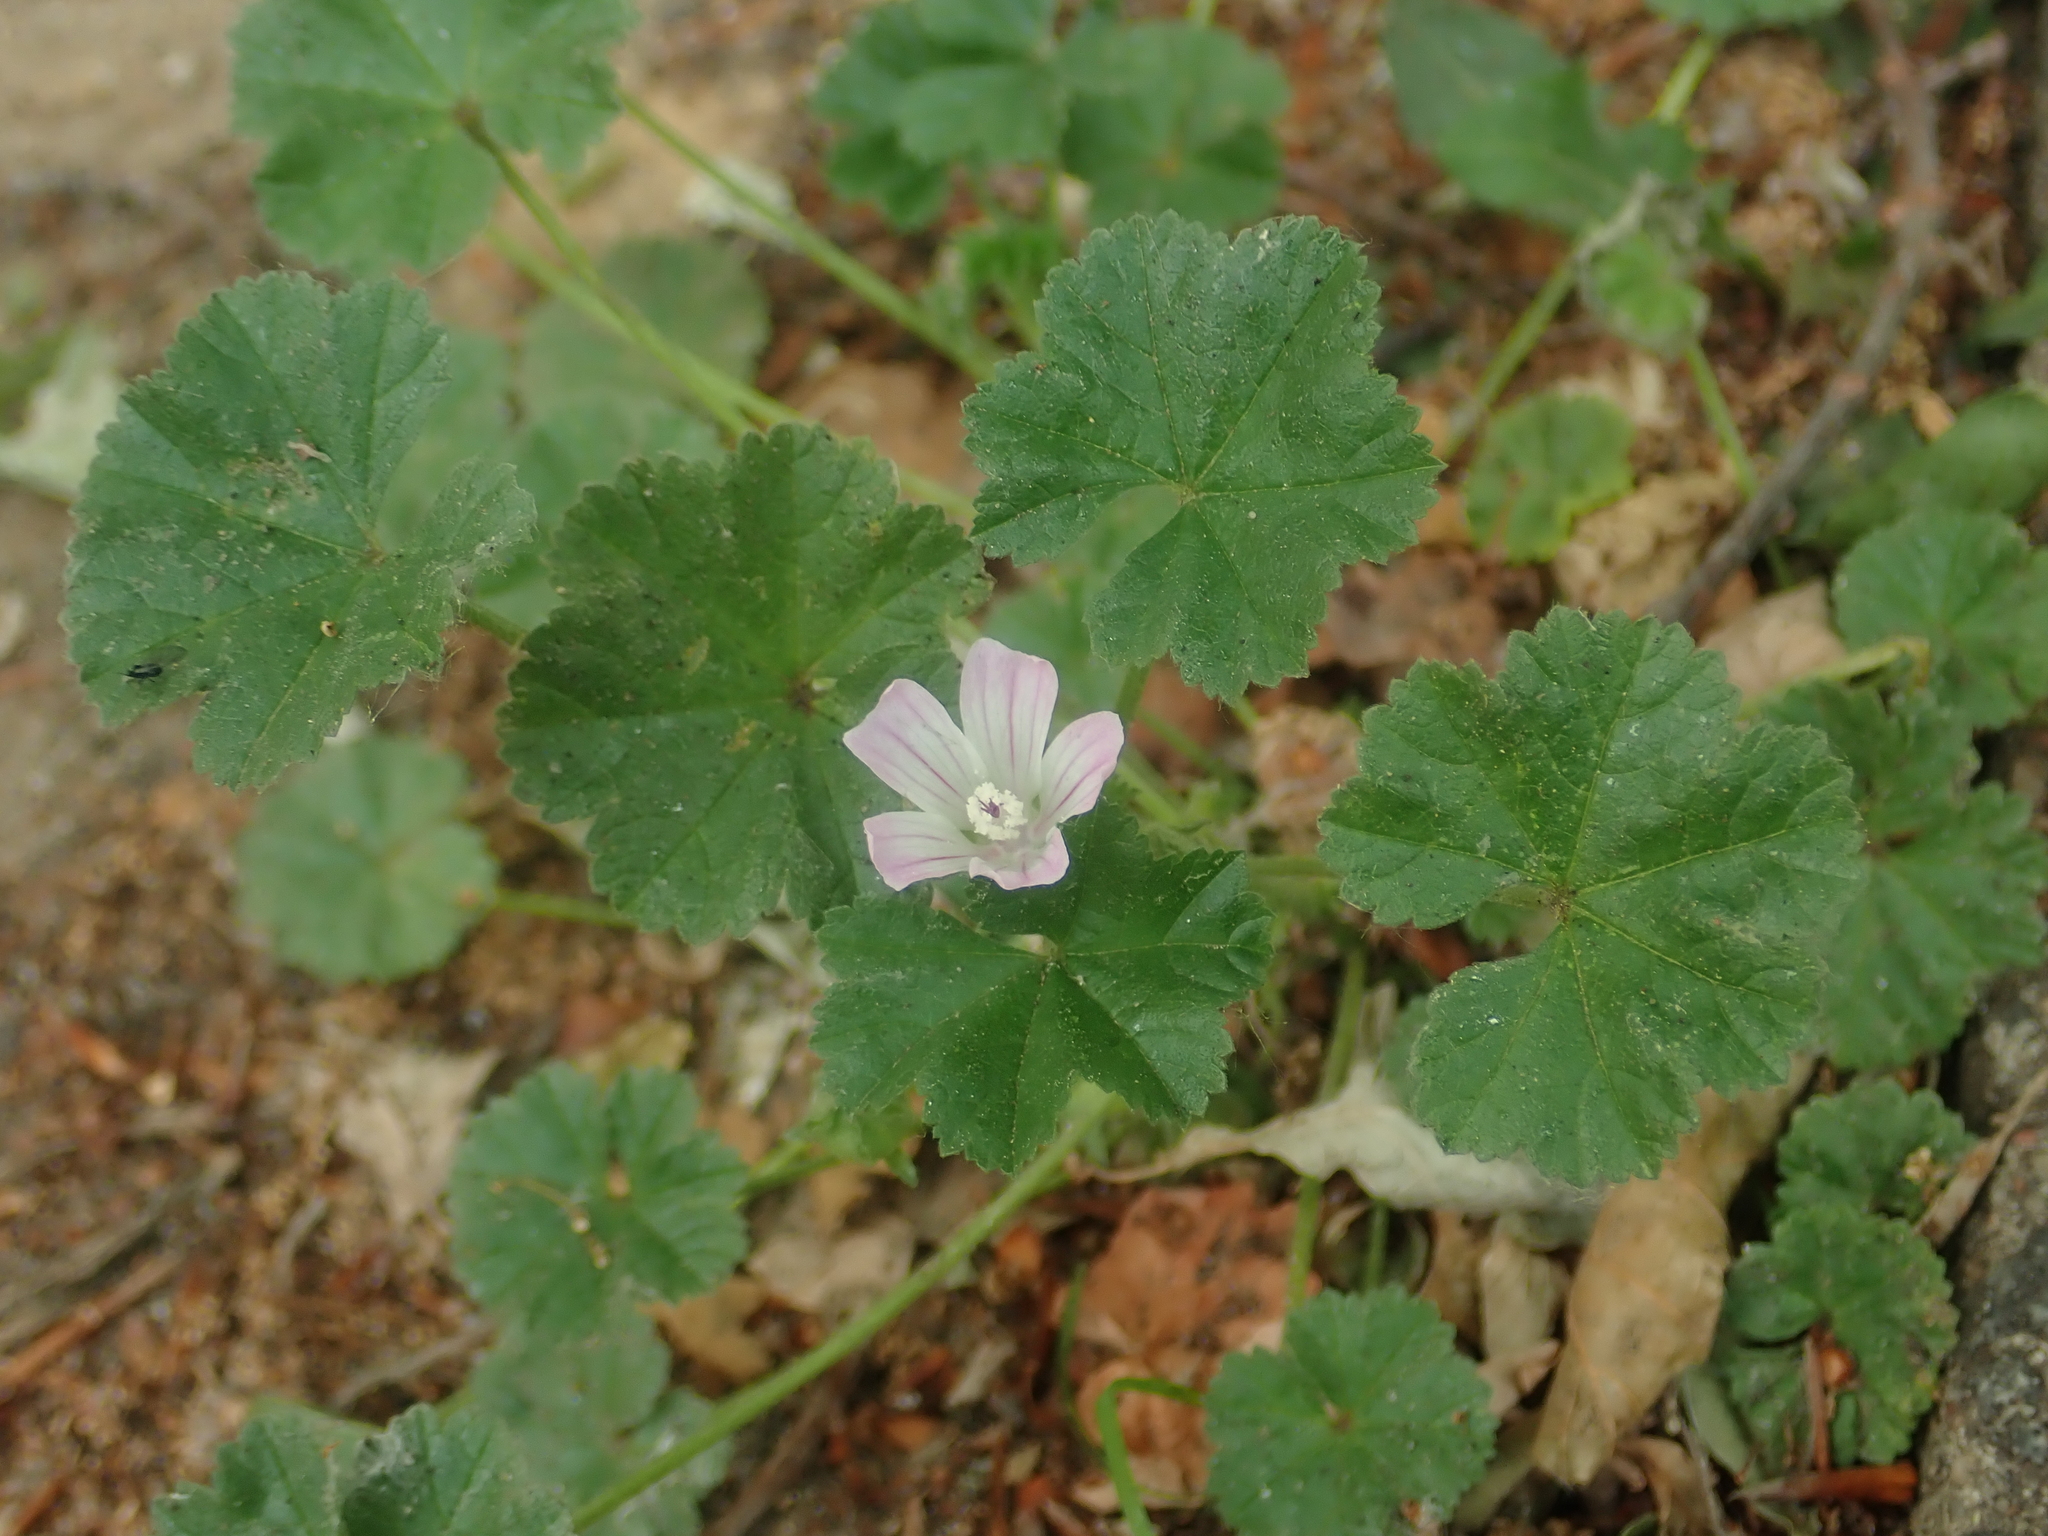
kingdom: Plantae
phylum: Tracheophyta
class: Magnoliopsida
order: Malvales
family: Malvaceae
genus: Malva
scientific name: Malva neglecta
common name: Common mallow
